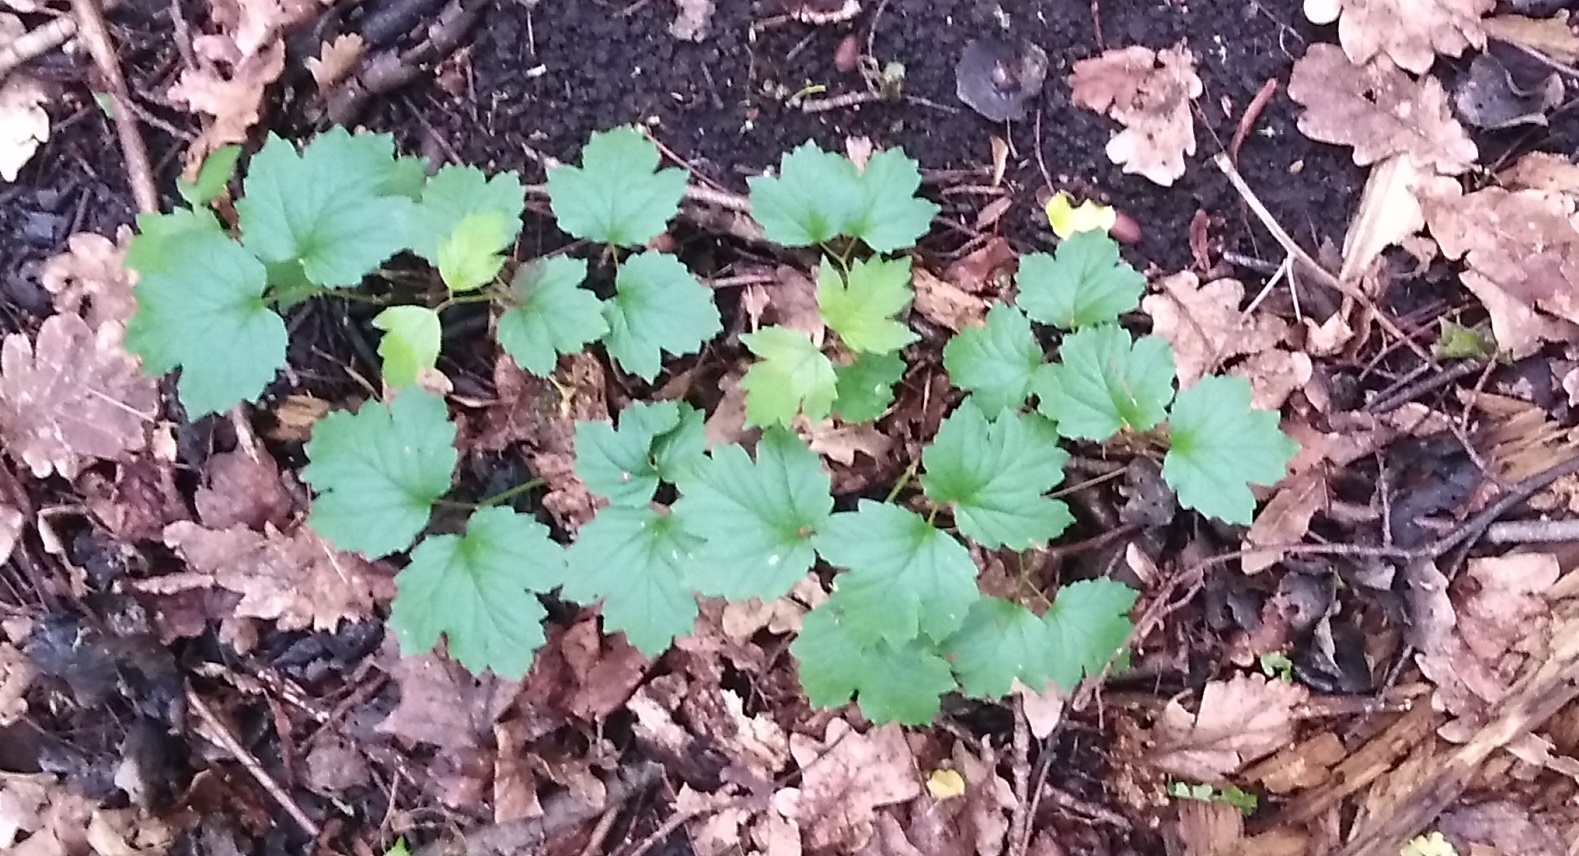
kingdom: Plantae
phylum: Tracheophyta
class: Magnoliopsida
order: Dipsacales
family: Viburnaceae
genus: Viburnum
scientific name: Viburnum opulus
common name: Guelder-rose
